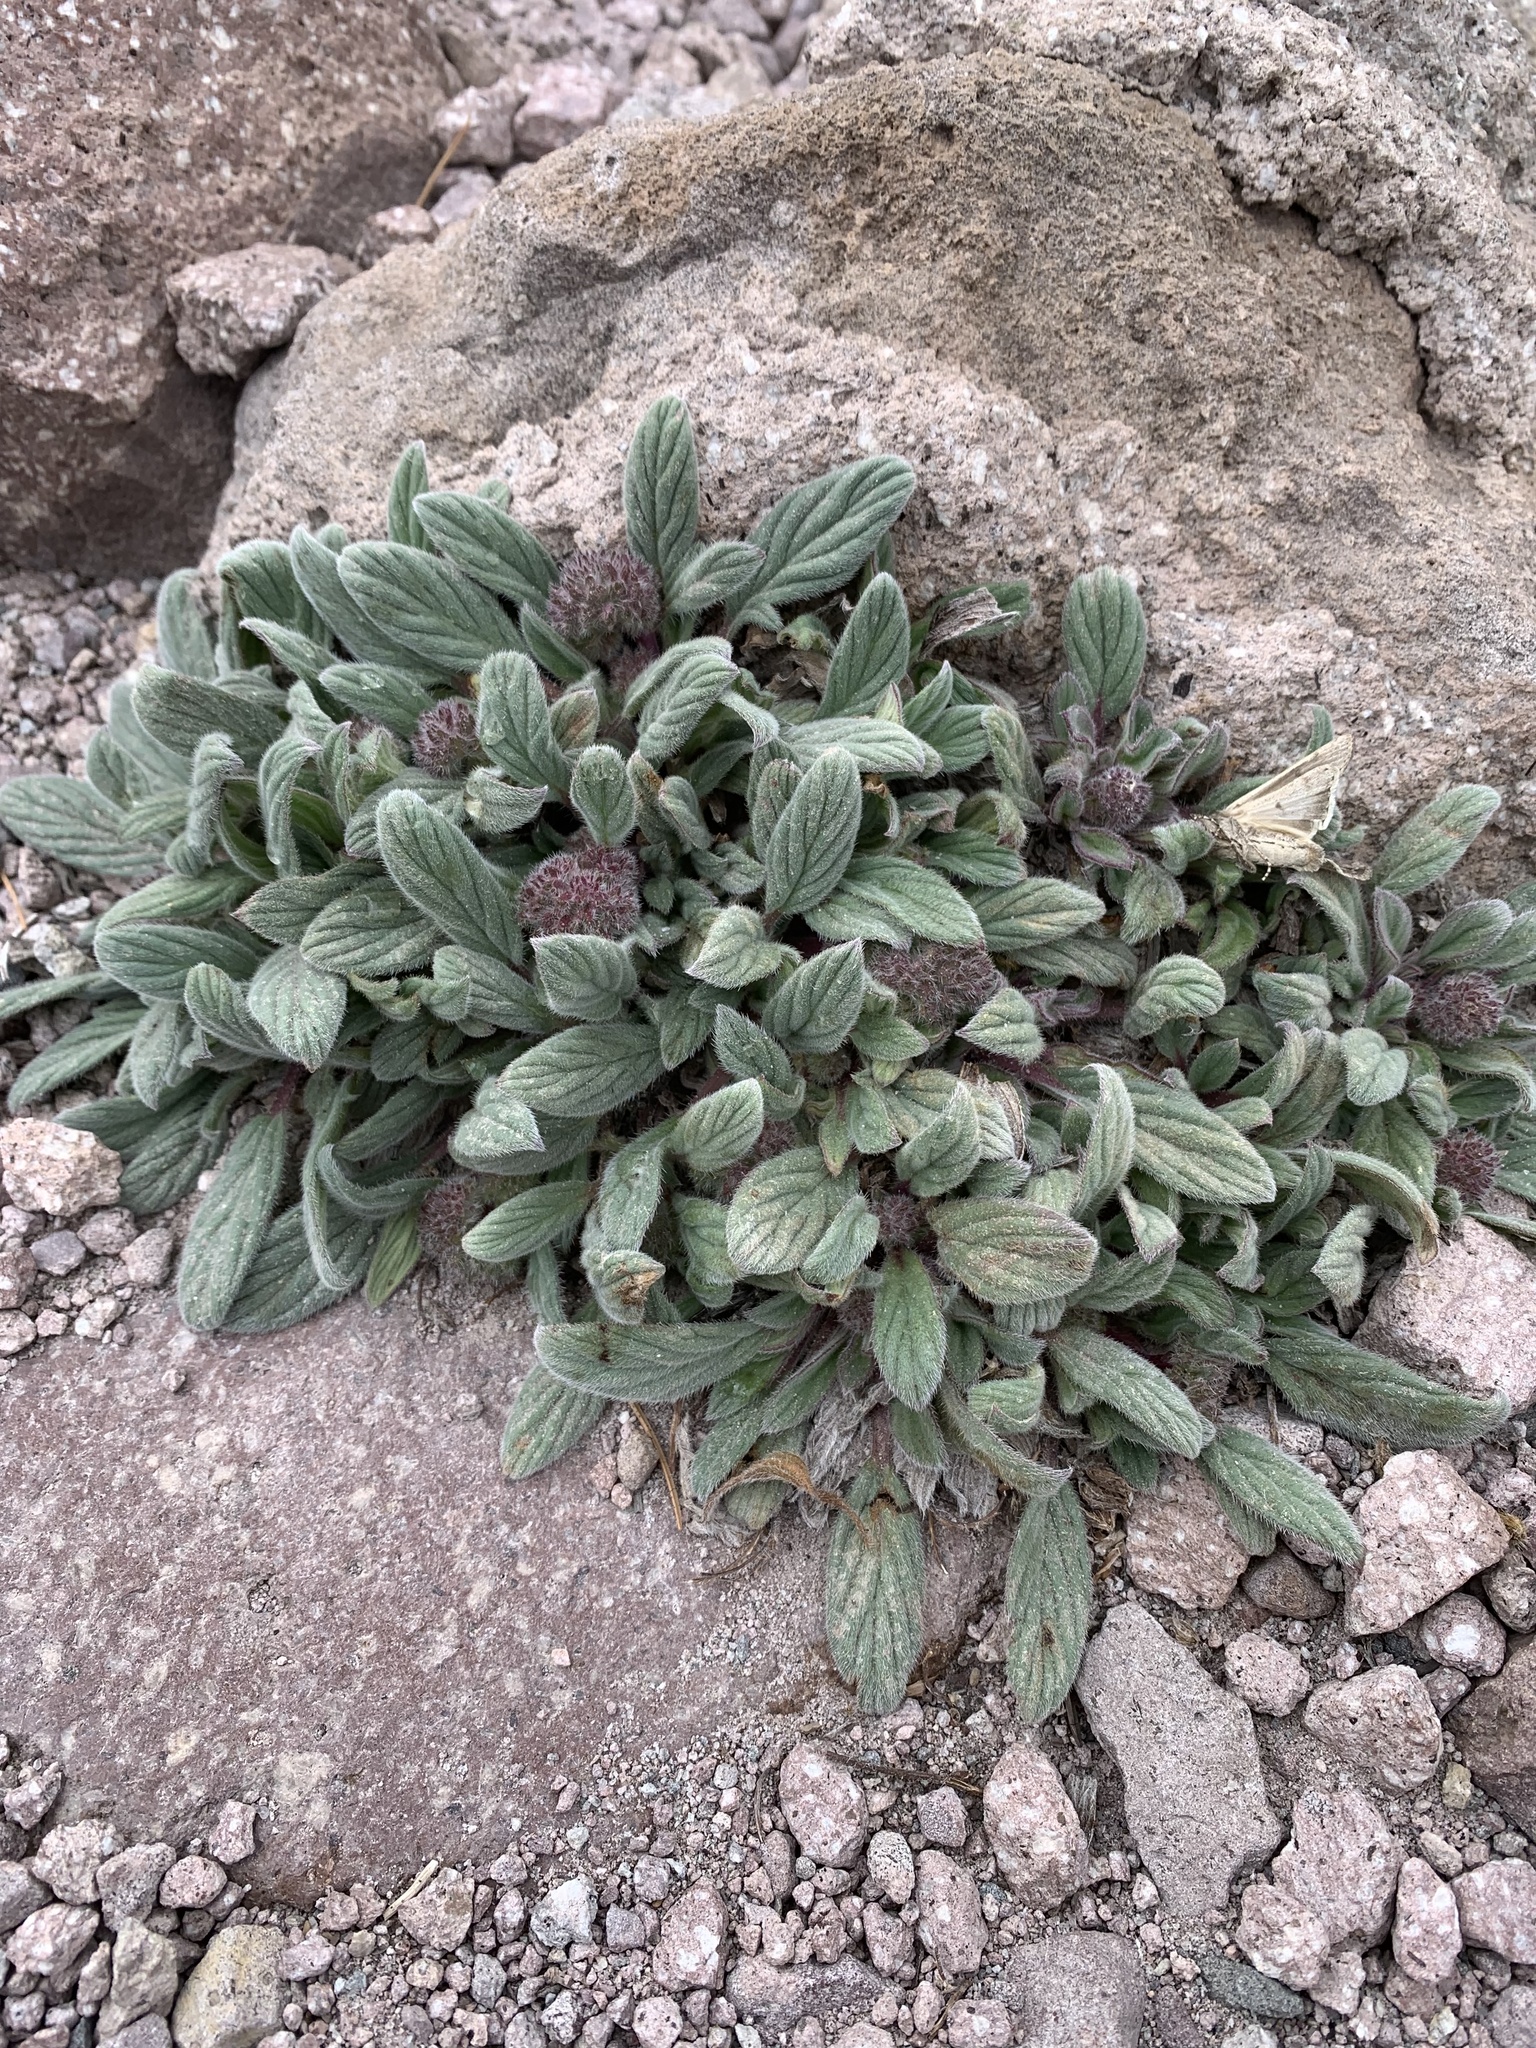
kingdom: Plantae
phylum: Tracheophyta
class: Magnoliopsida
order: Boraginales
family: Hydrophyllaceae
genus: Phacelia
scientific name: Phacelia hastata
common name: Silver-leaved phacelia
